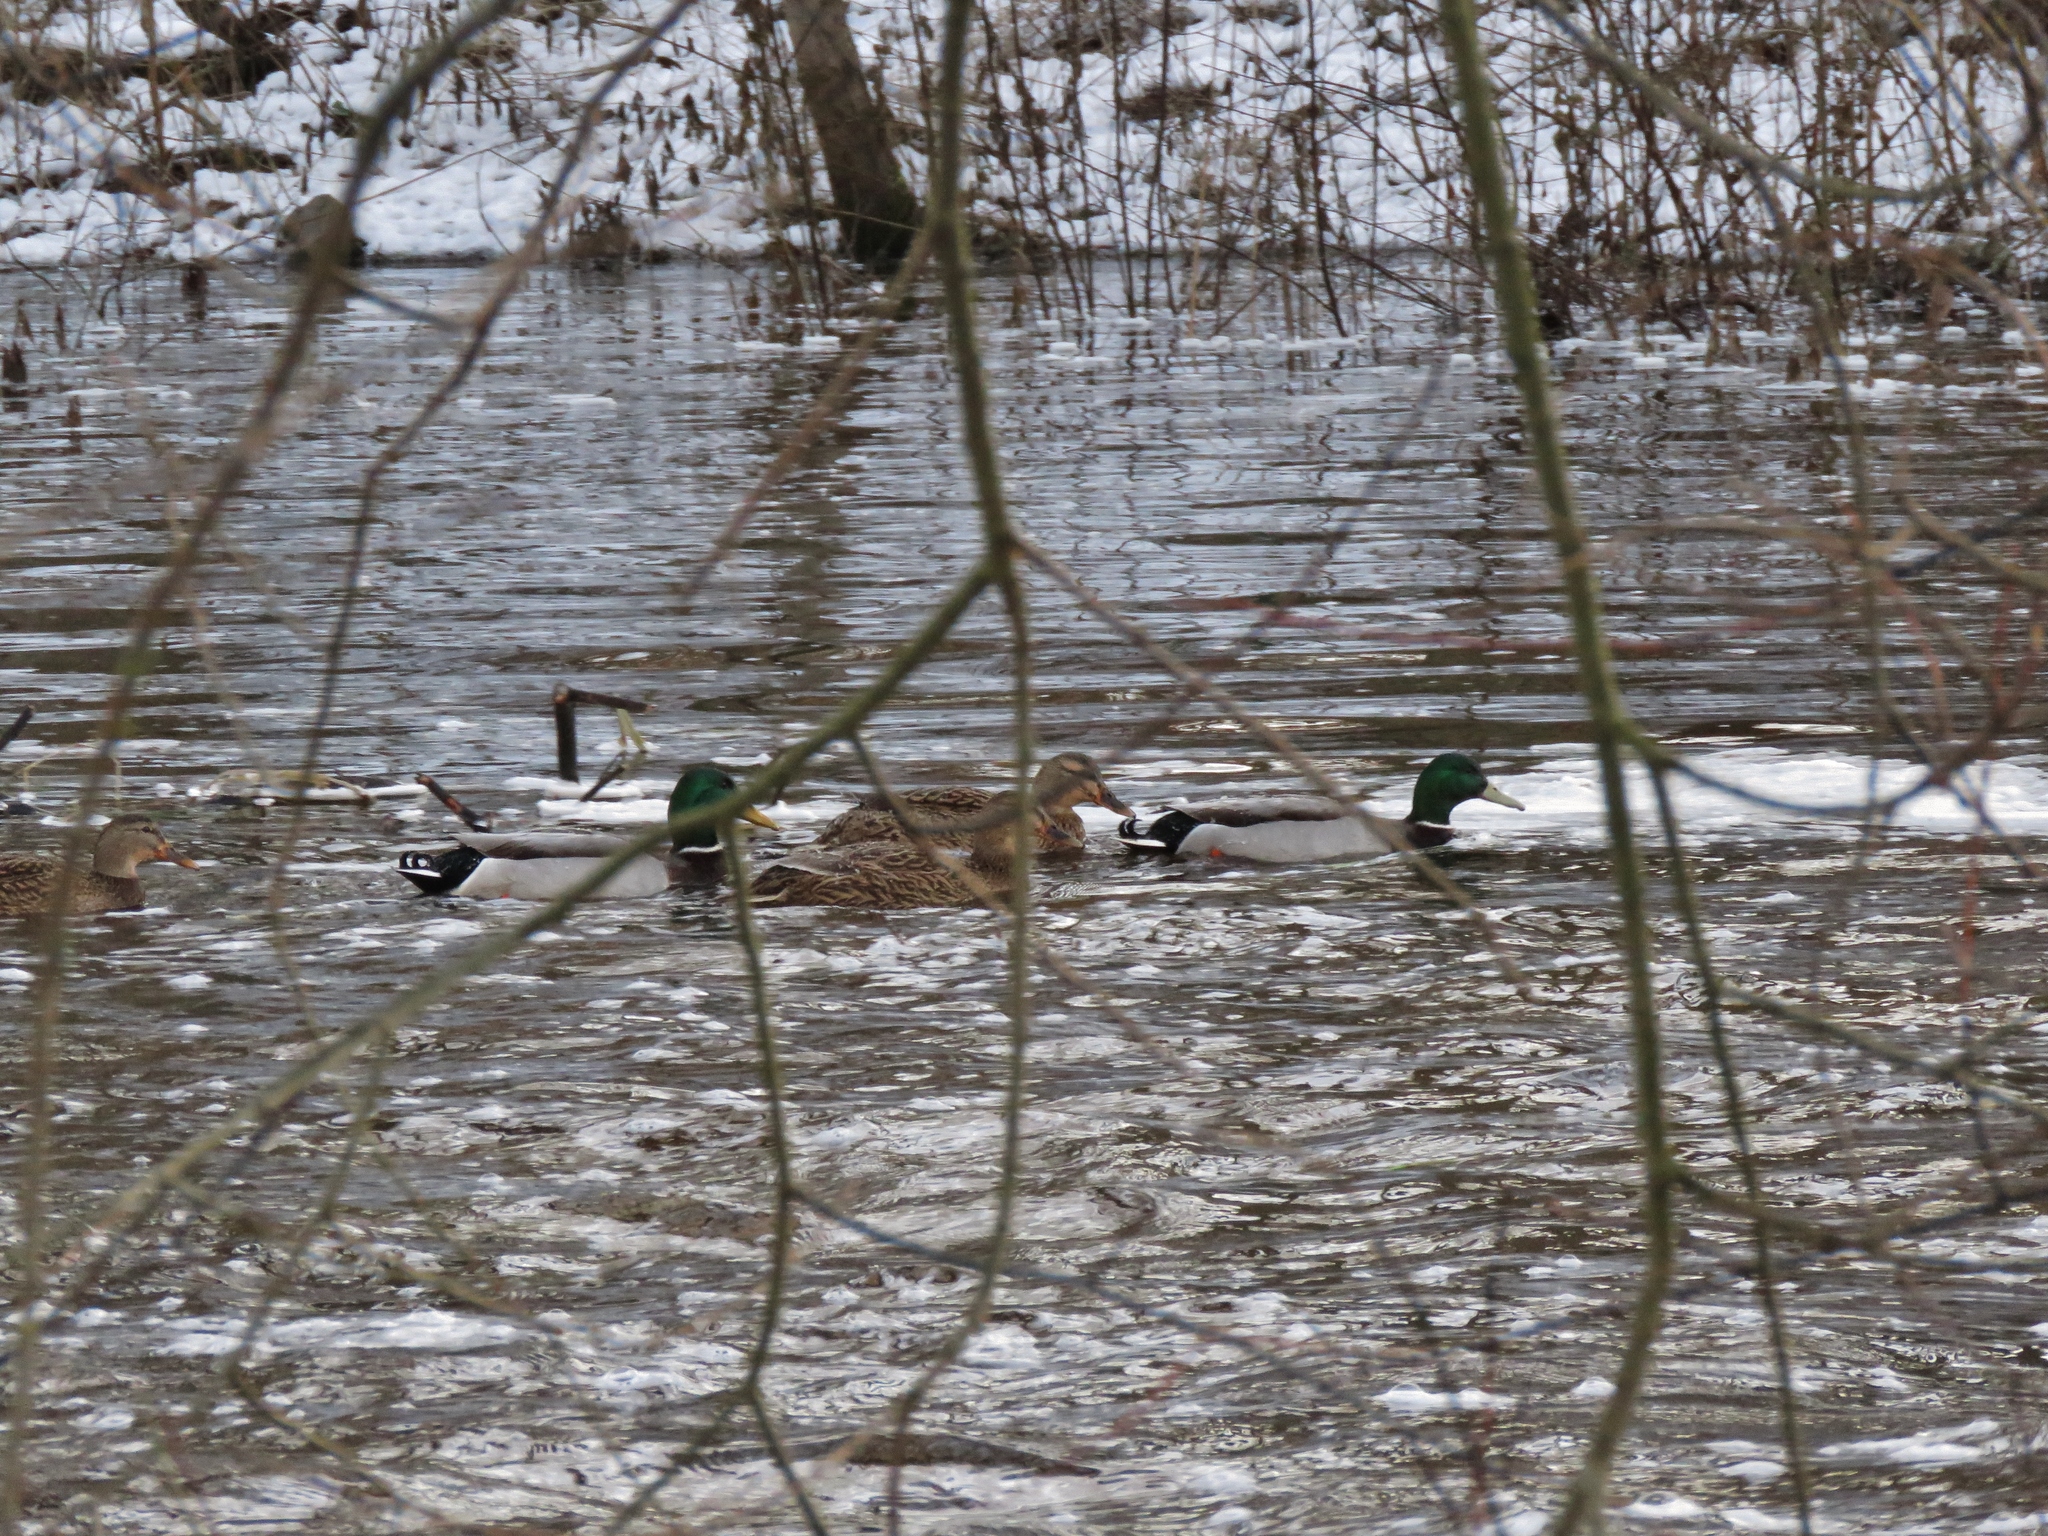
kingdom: Animalia
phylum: Chordata
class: Aves
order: Anseriformes
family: Anatidae
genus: Anas
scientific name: Anas platyrhynchos
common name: Mallard
